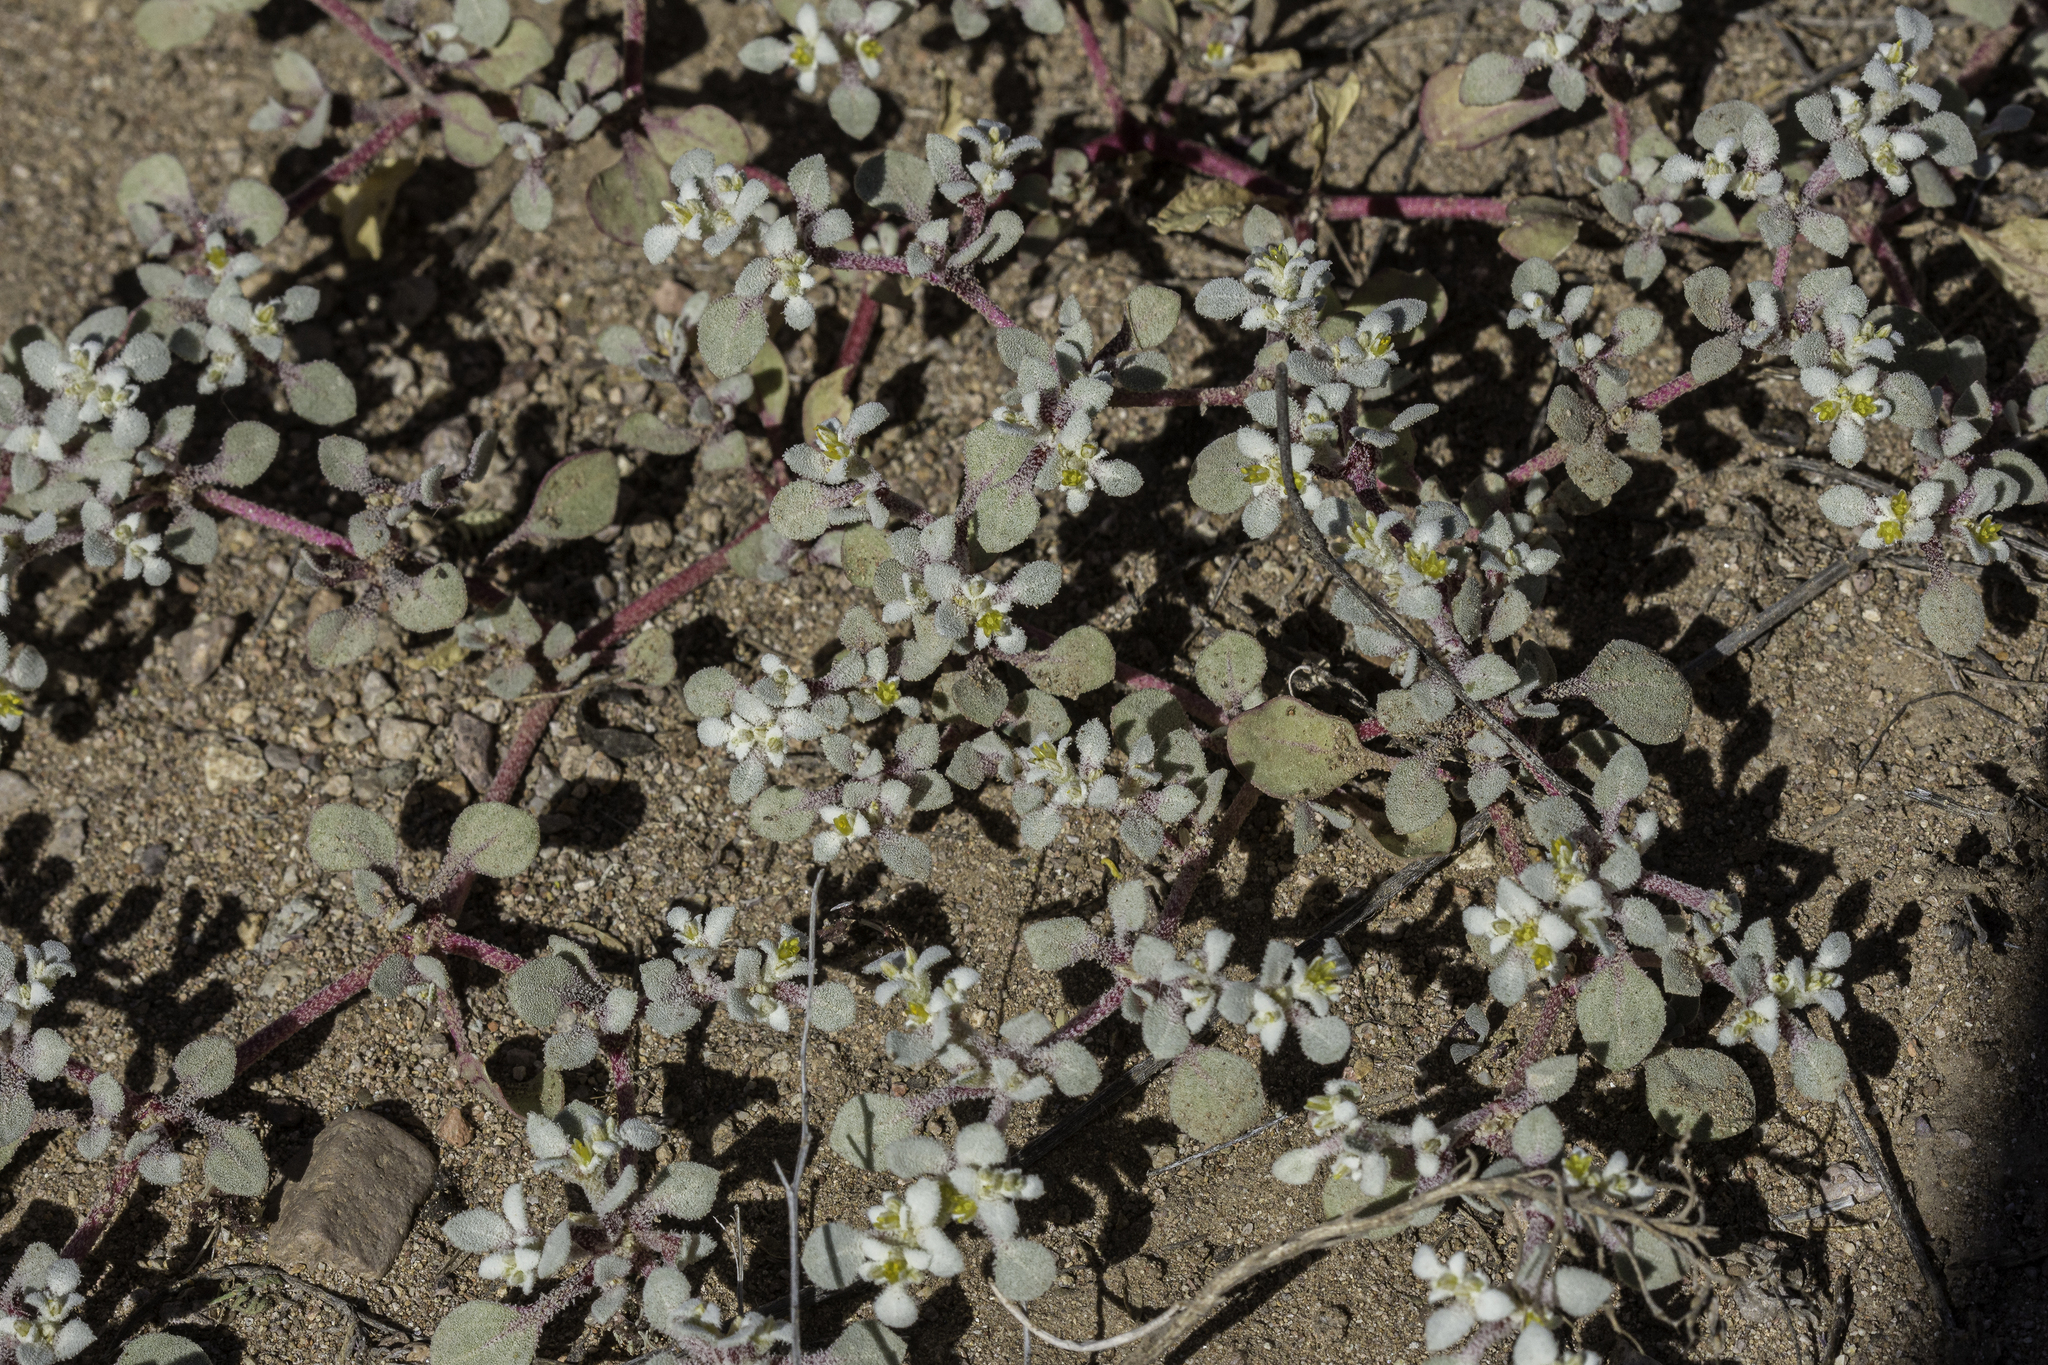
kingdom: Plantae
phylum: Tracheophyta
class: Magnoliopsida
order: Caryophyllales
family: Amaranthaceae
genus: Tidestromia
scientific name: Tidestromia lanuginosa
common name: Woolly tidestromia
